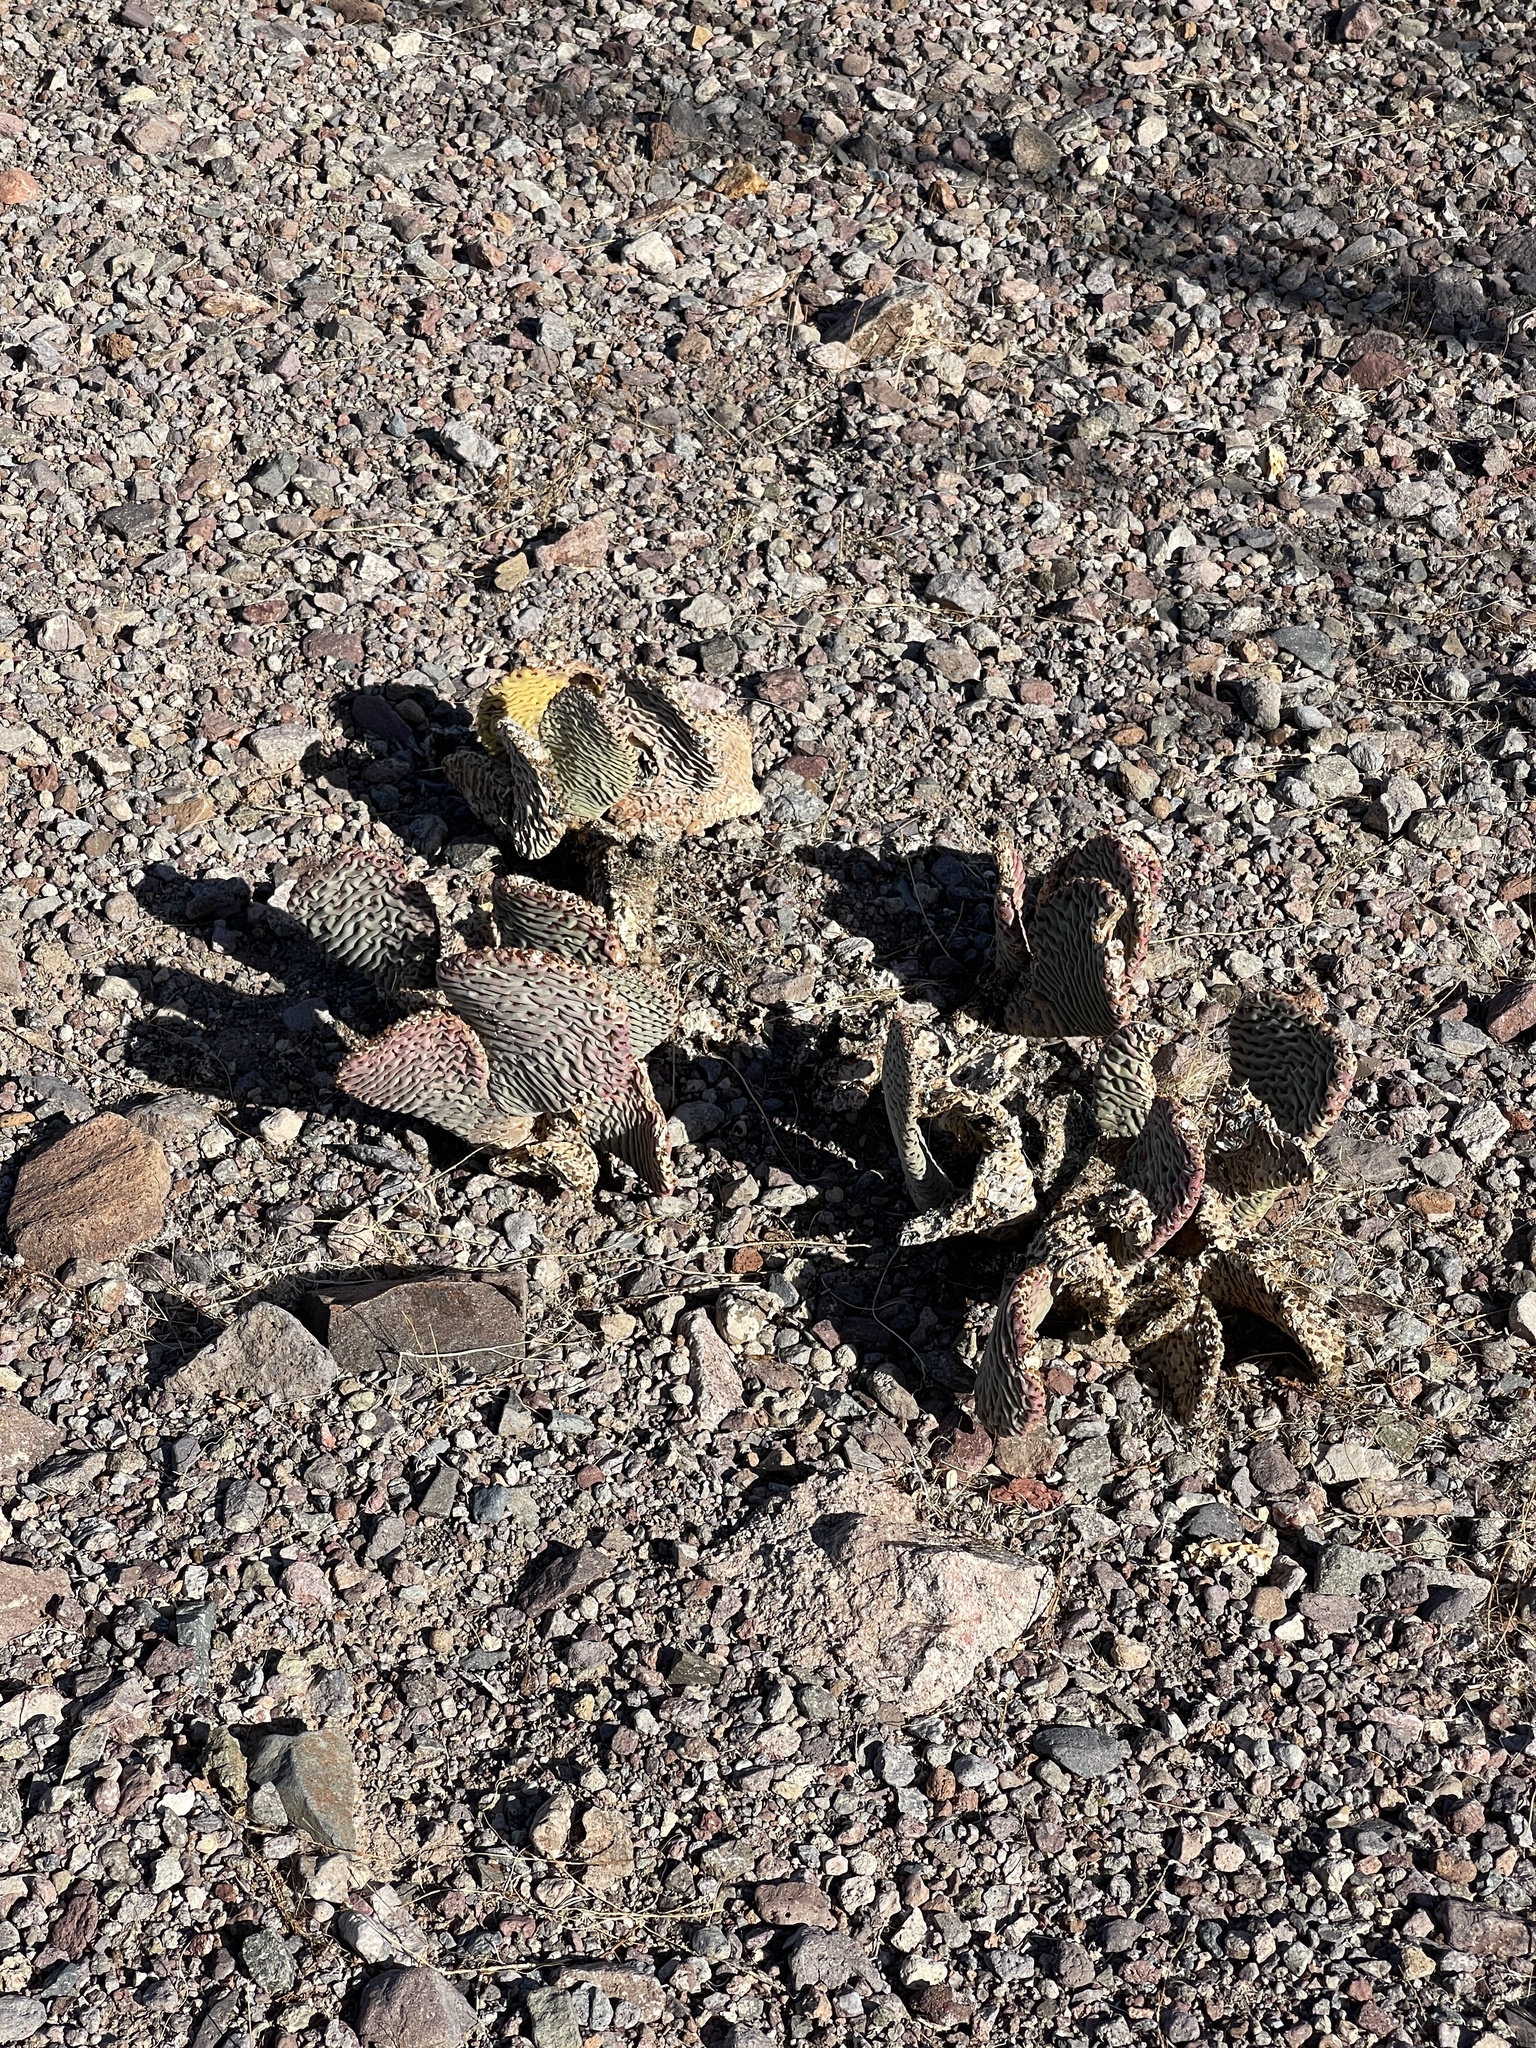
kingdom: Plantae
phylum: Tracheophyta
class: Magnoliopsida
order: Caryophyllales
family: Cactaceae
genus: Opuntia
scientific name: Opuntia basilaris
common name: Beavertail prickly-pear
